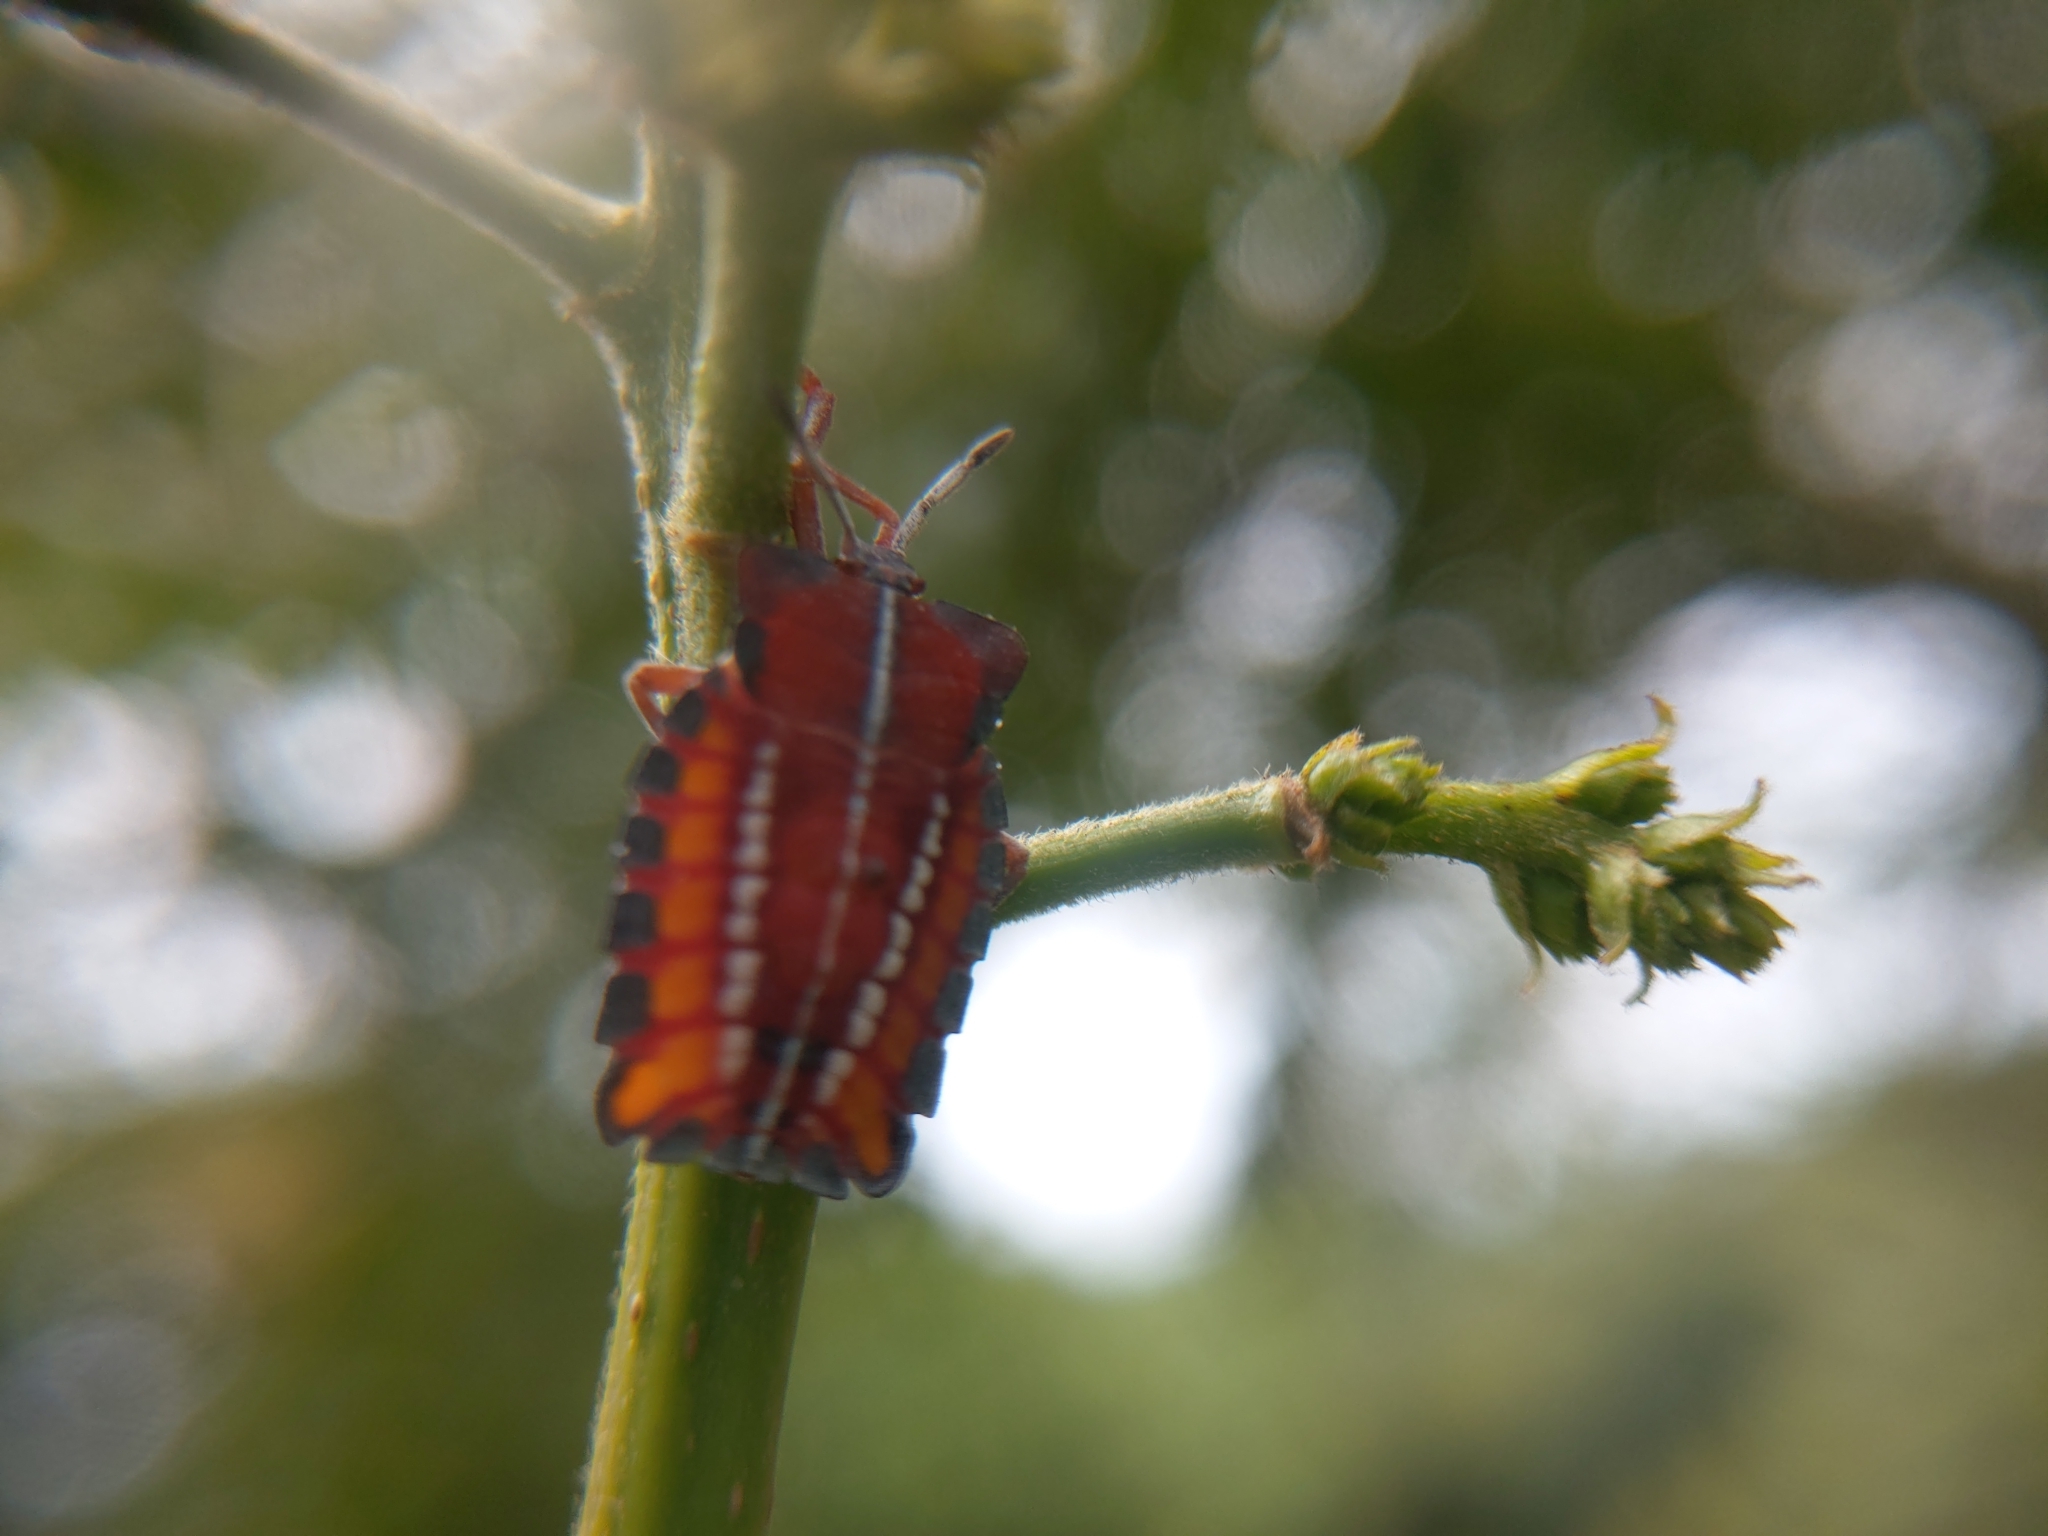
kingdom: Animalia
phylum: Arthropoda
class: Insecta
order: Hemiptera
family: Tessaratomidae
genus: Tessaratoma
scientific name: Tessaratoma papillosa
